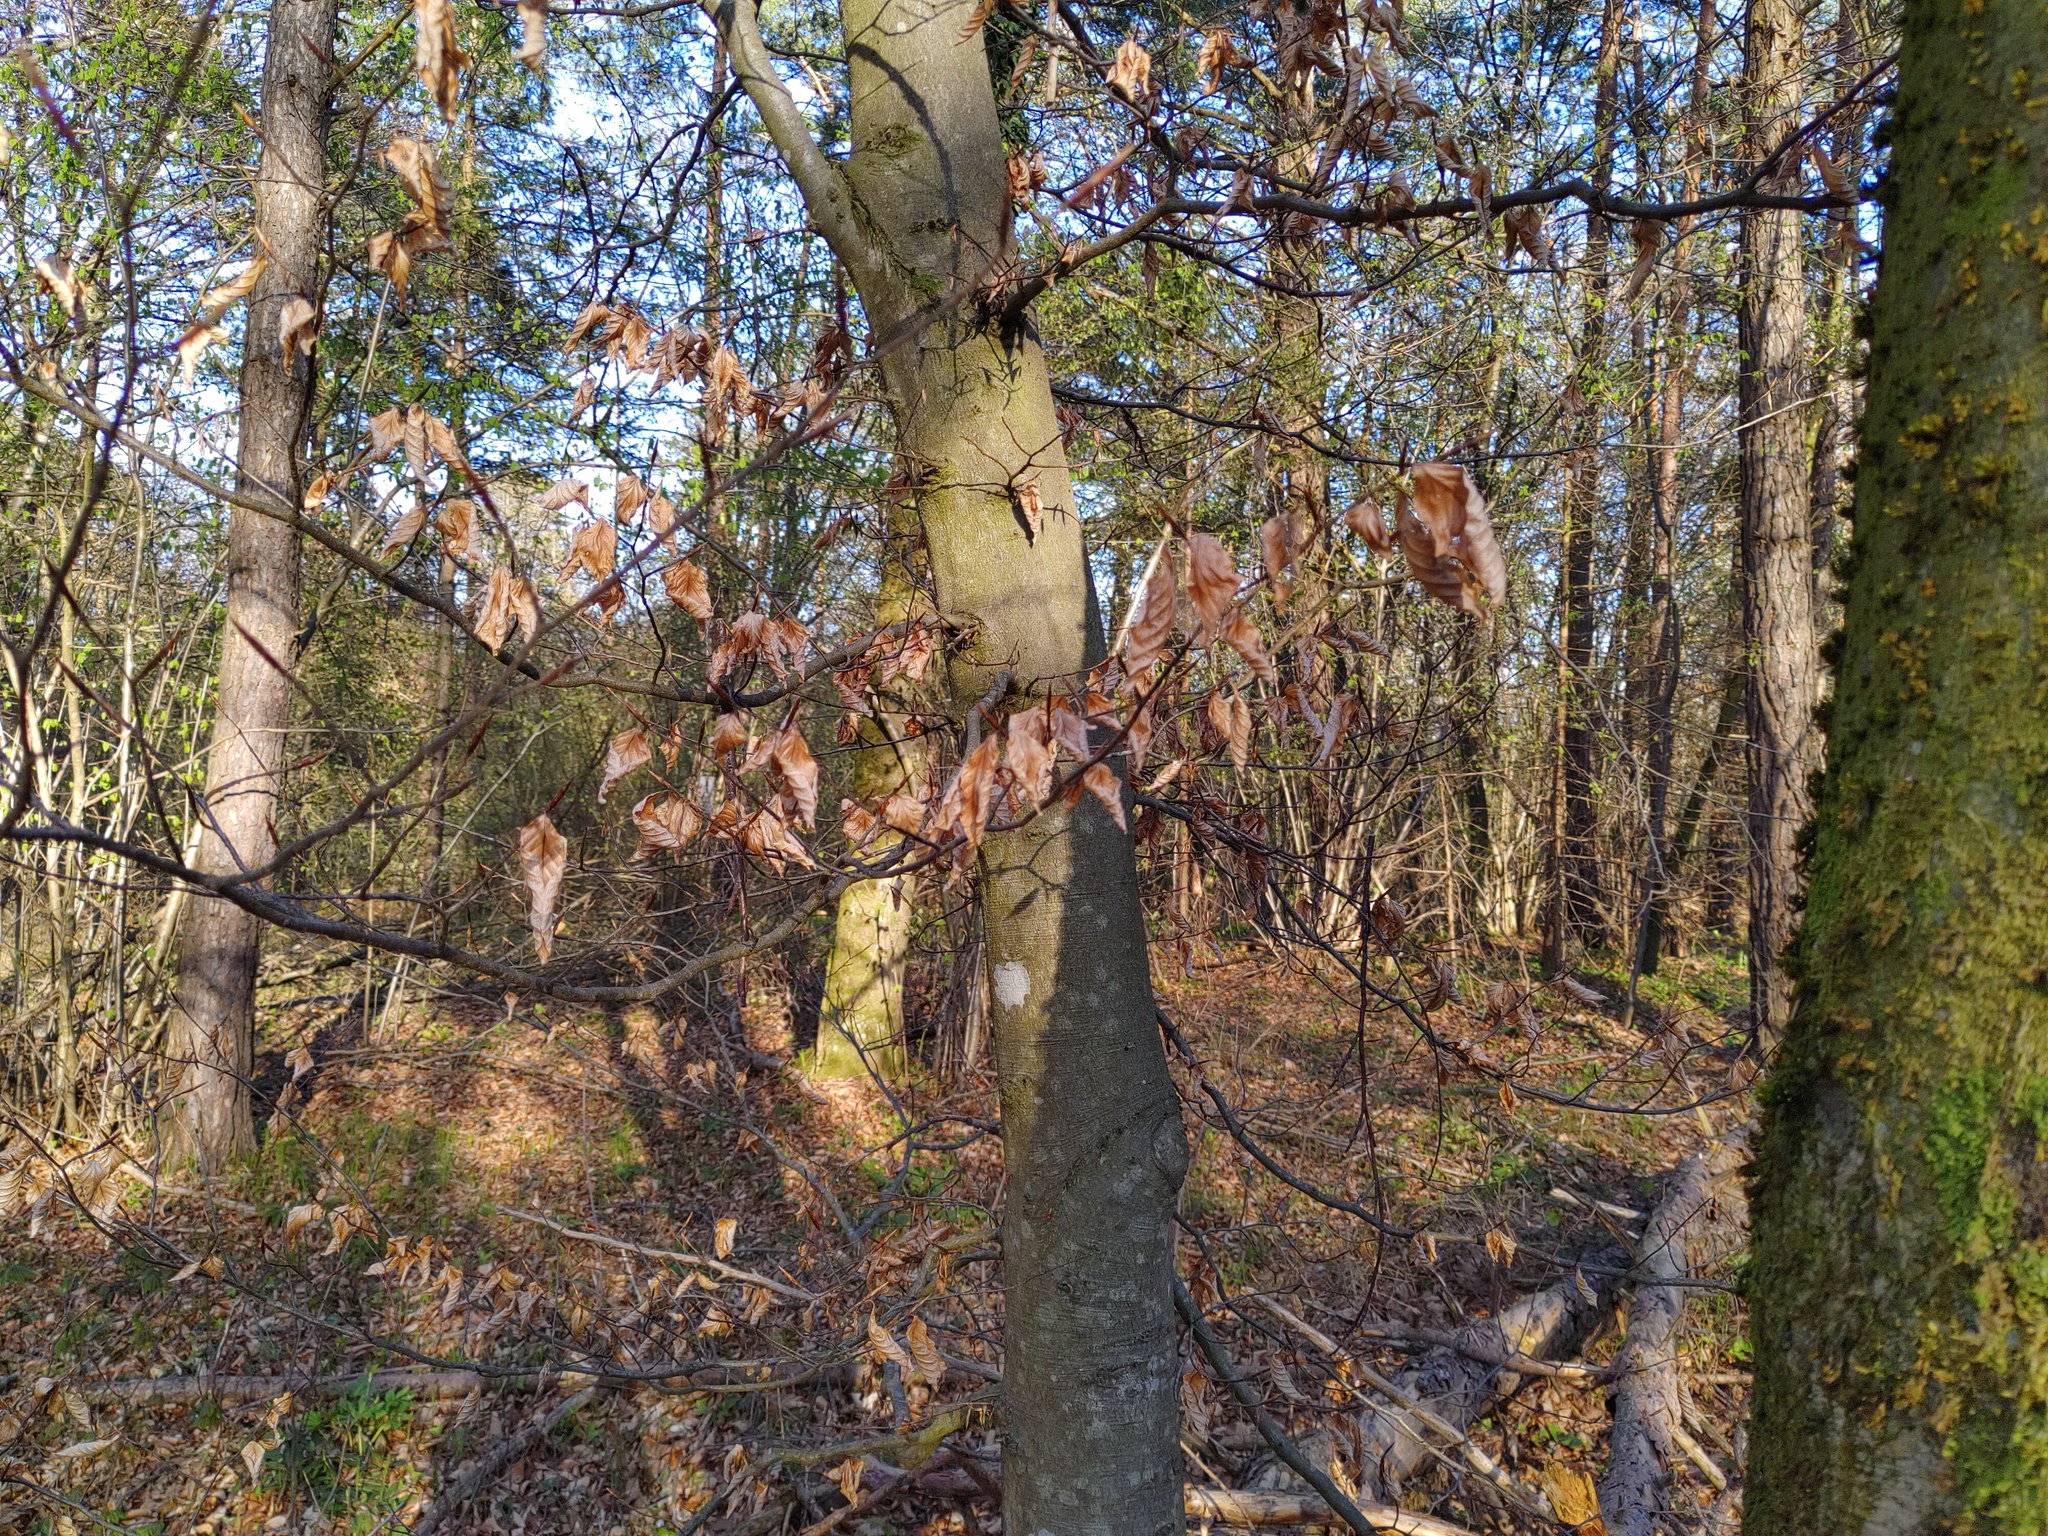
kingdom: Plantae
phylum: Tracheophyta
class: Magnoliopsida
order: Fagales
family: Fagaceae
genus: Fagus
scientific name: Fagus sylvatica
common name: Beech
